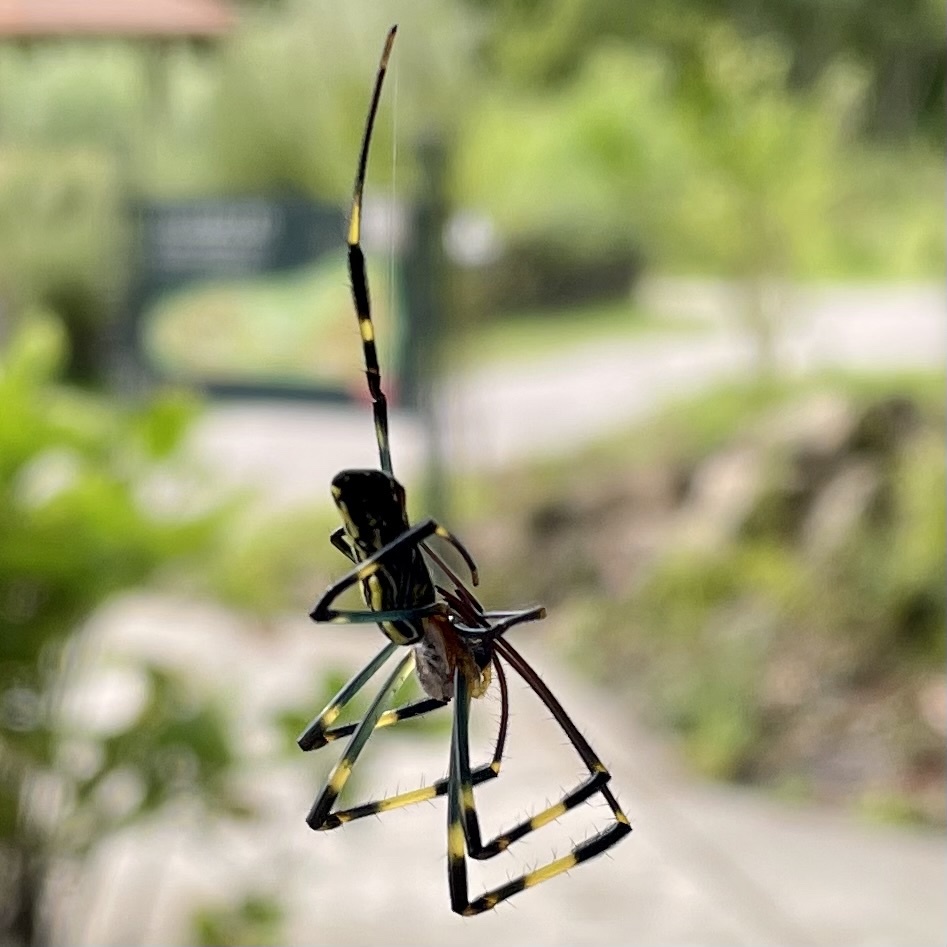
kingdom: Animalia
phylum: Arthropoda
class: Arachnida
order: Araneae
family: Araneidae
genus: Trichonephila
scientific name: Trichonephila clavata
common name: Jorō spider
